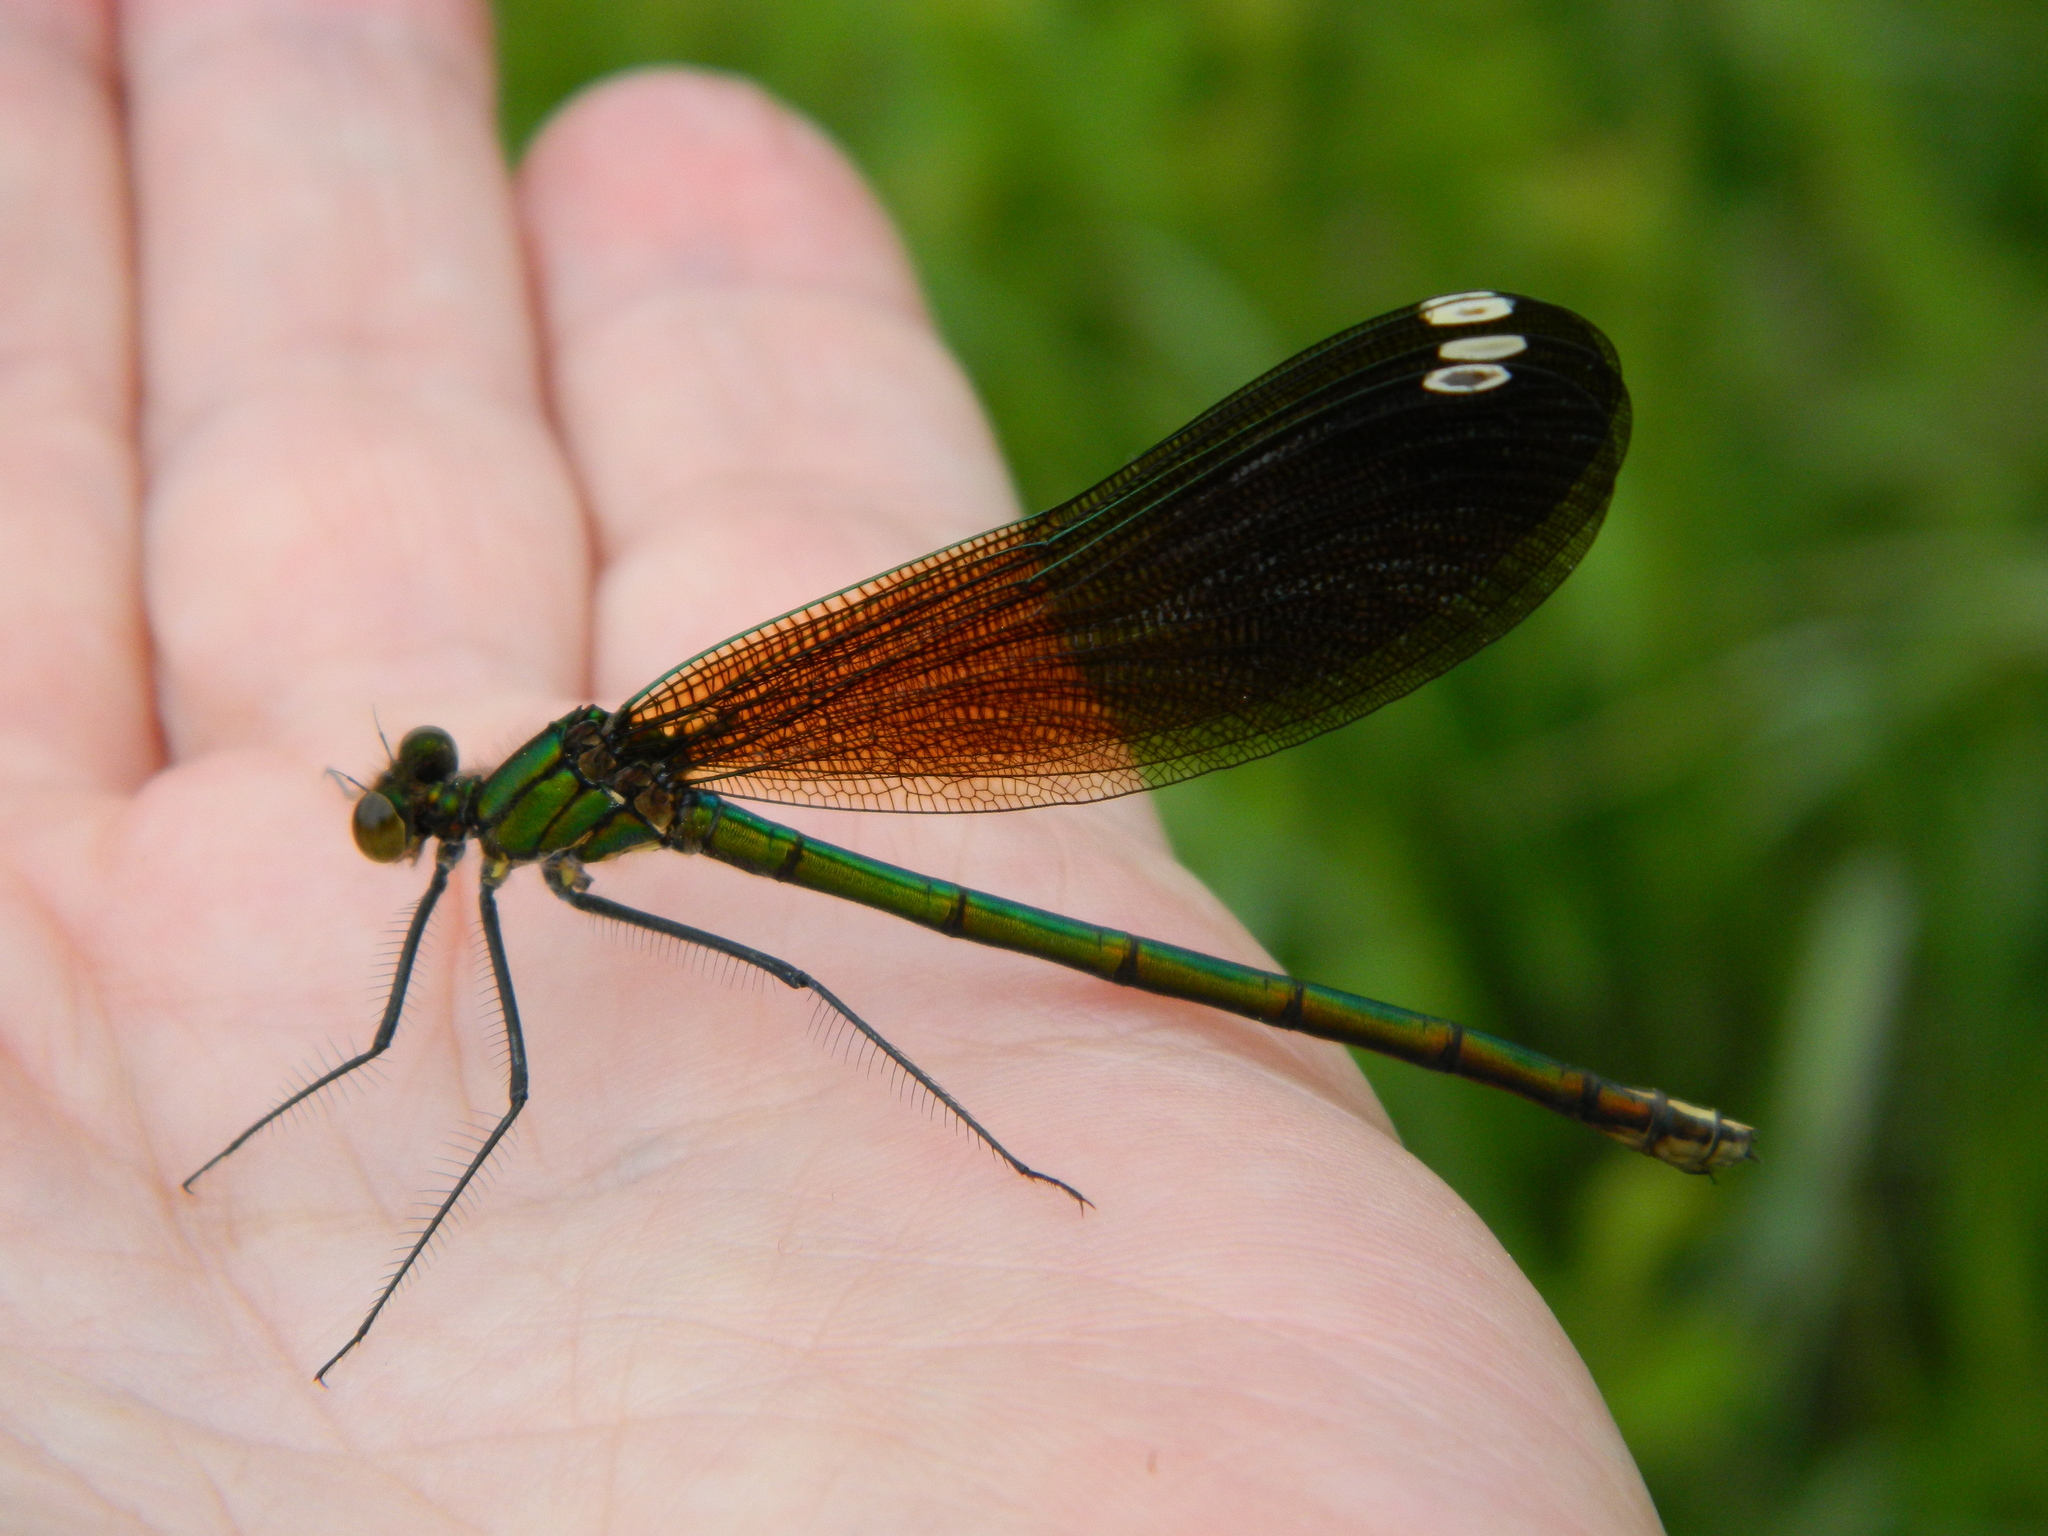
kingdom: Animalia
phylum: Arthropoda
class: Insecta
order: Odonata
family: Calopterygidae
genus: Calopteryx
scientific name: Calopteryx aequabilis
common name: River jewelwing
